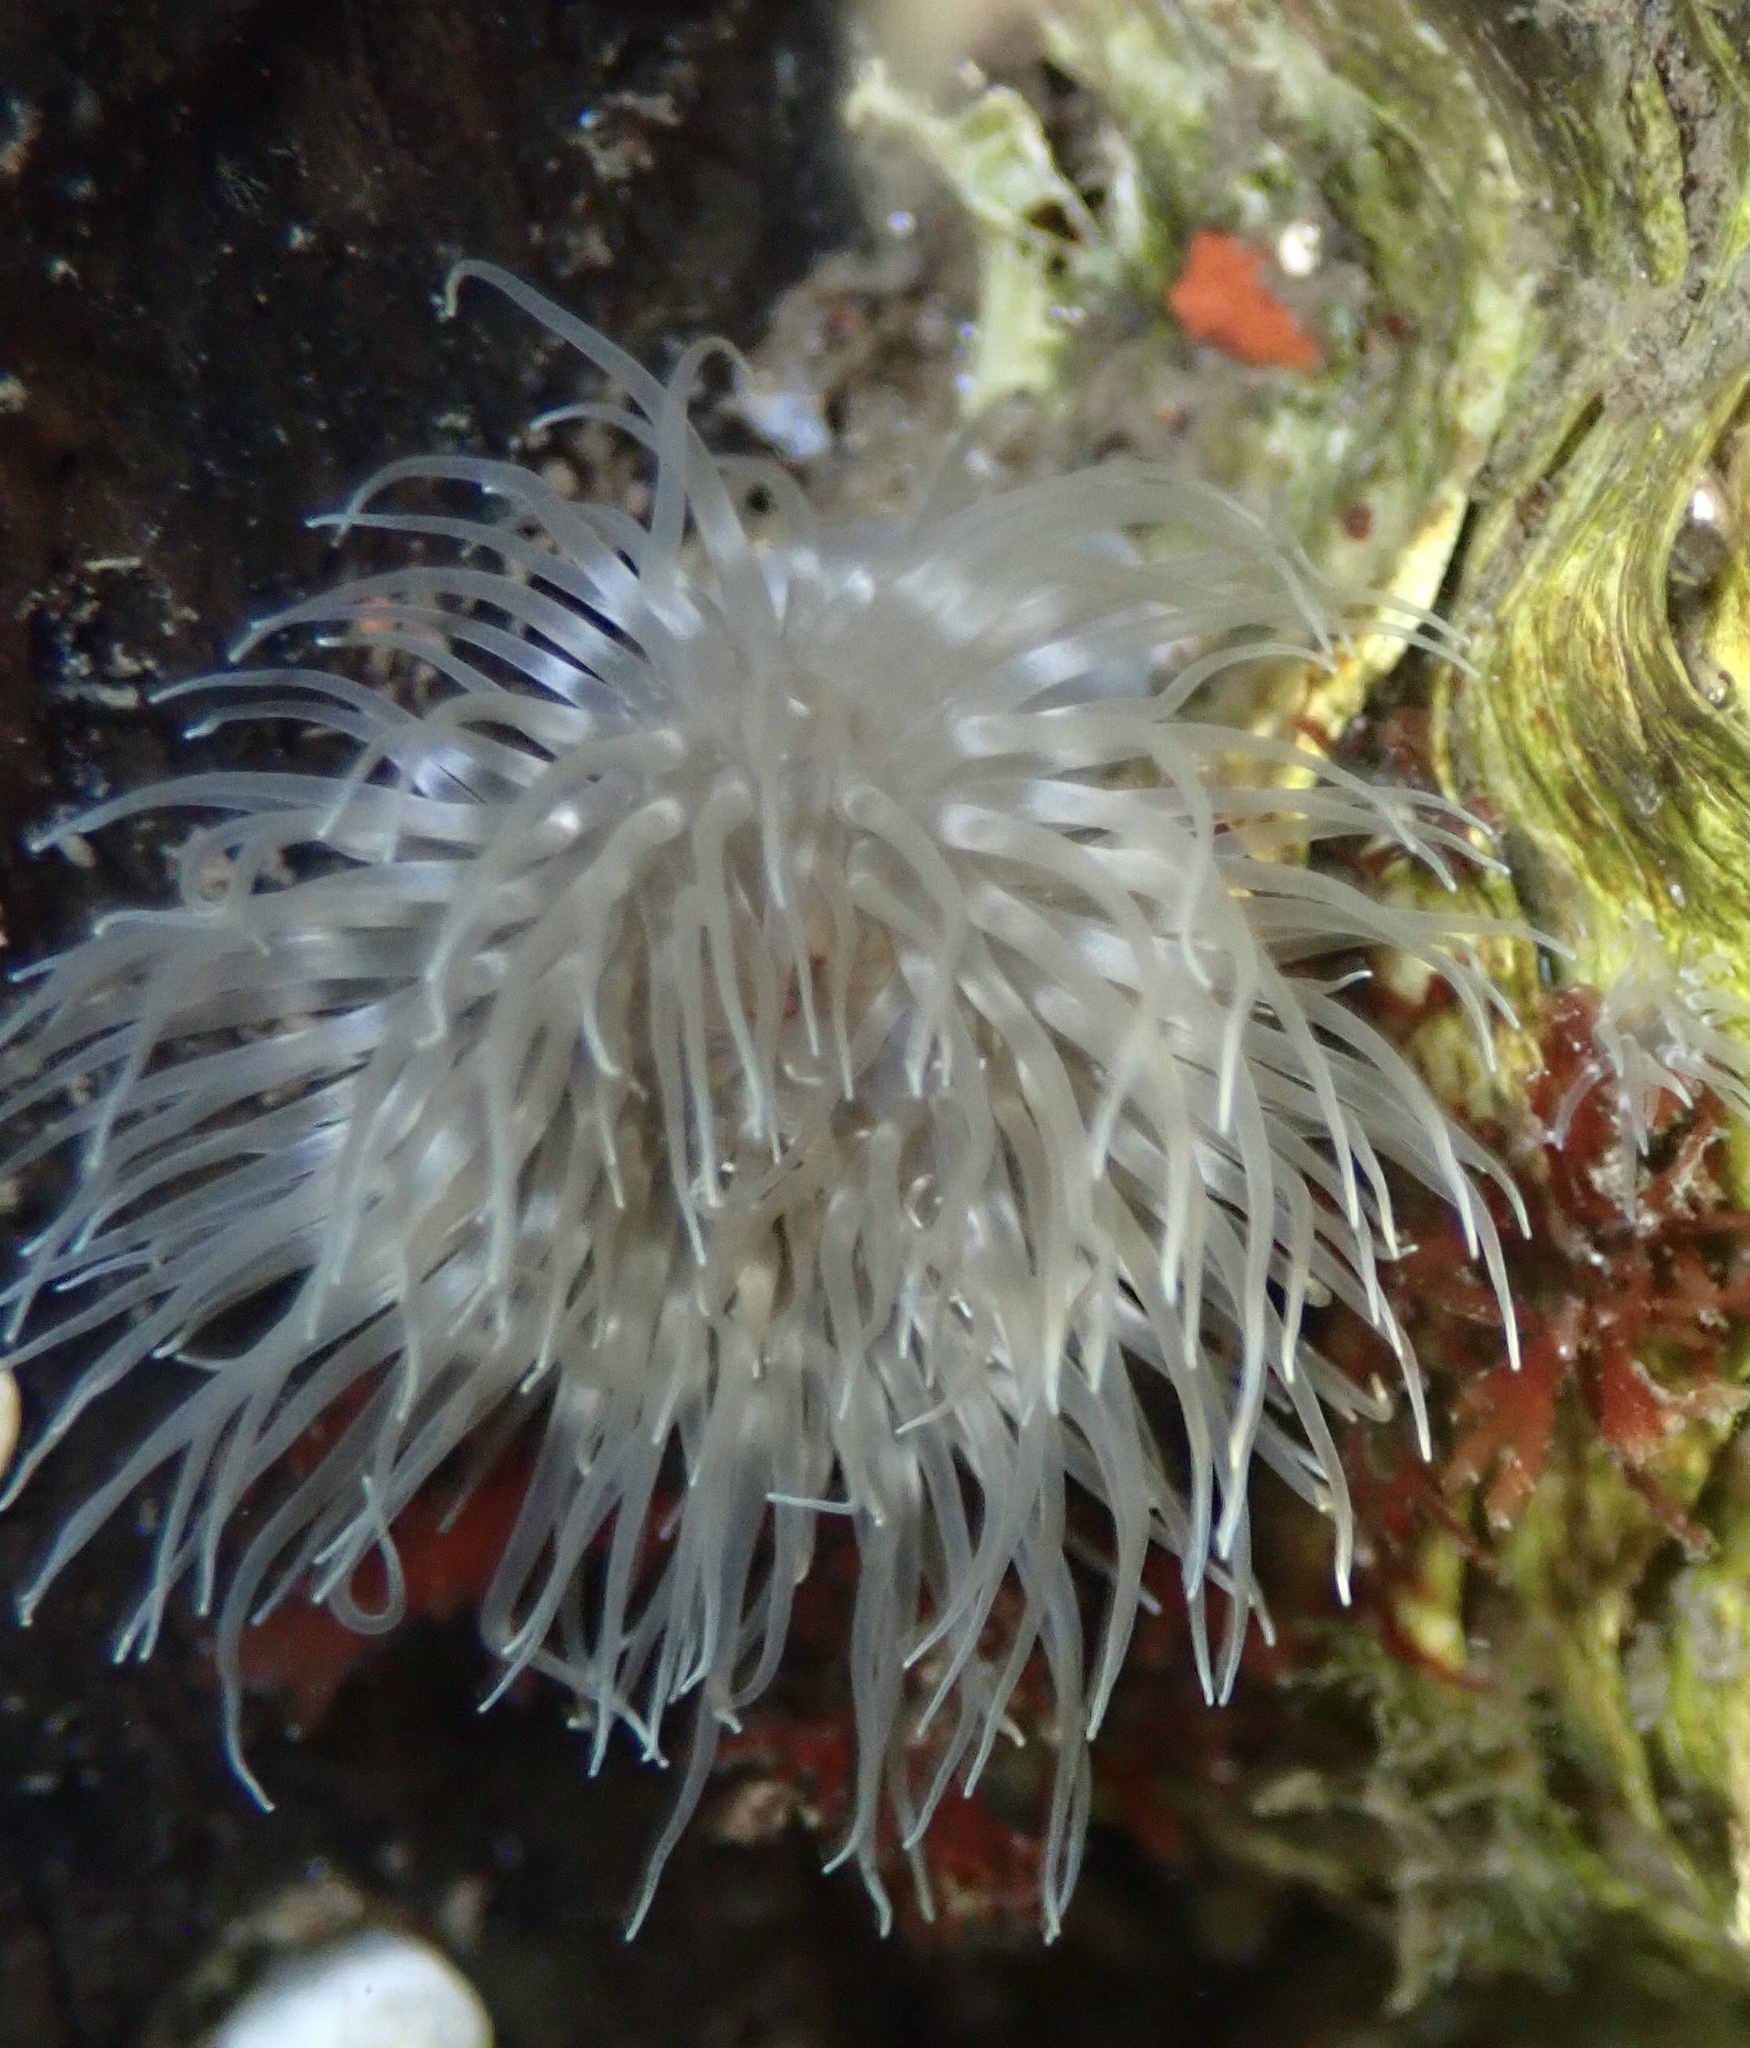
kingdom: Animalia
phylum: Cnidaria
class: Anthozoa
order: Actiniaria
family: Metridiidae
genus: Metridium
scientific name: Metridium senile
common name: Clonal plumose anemone
